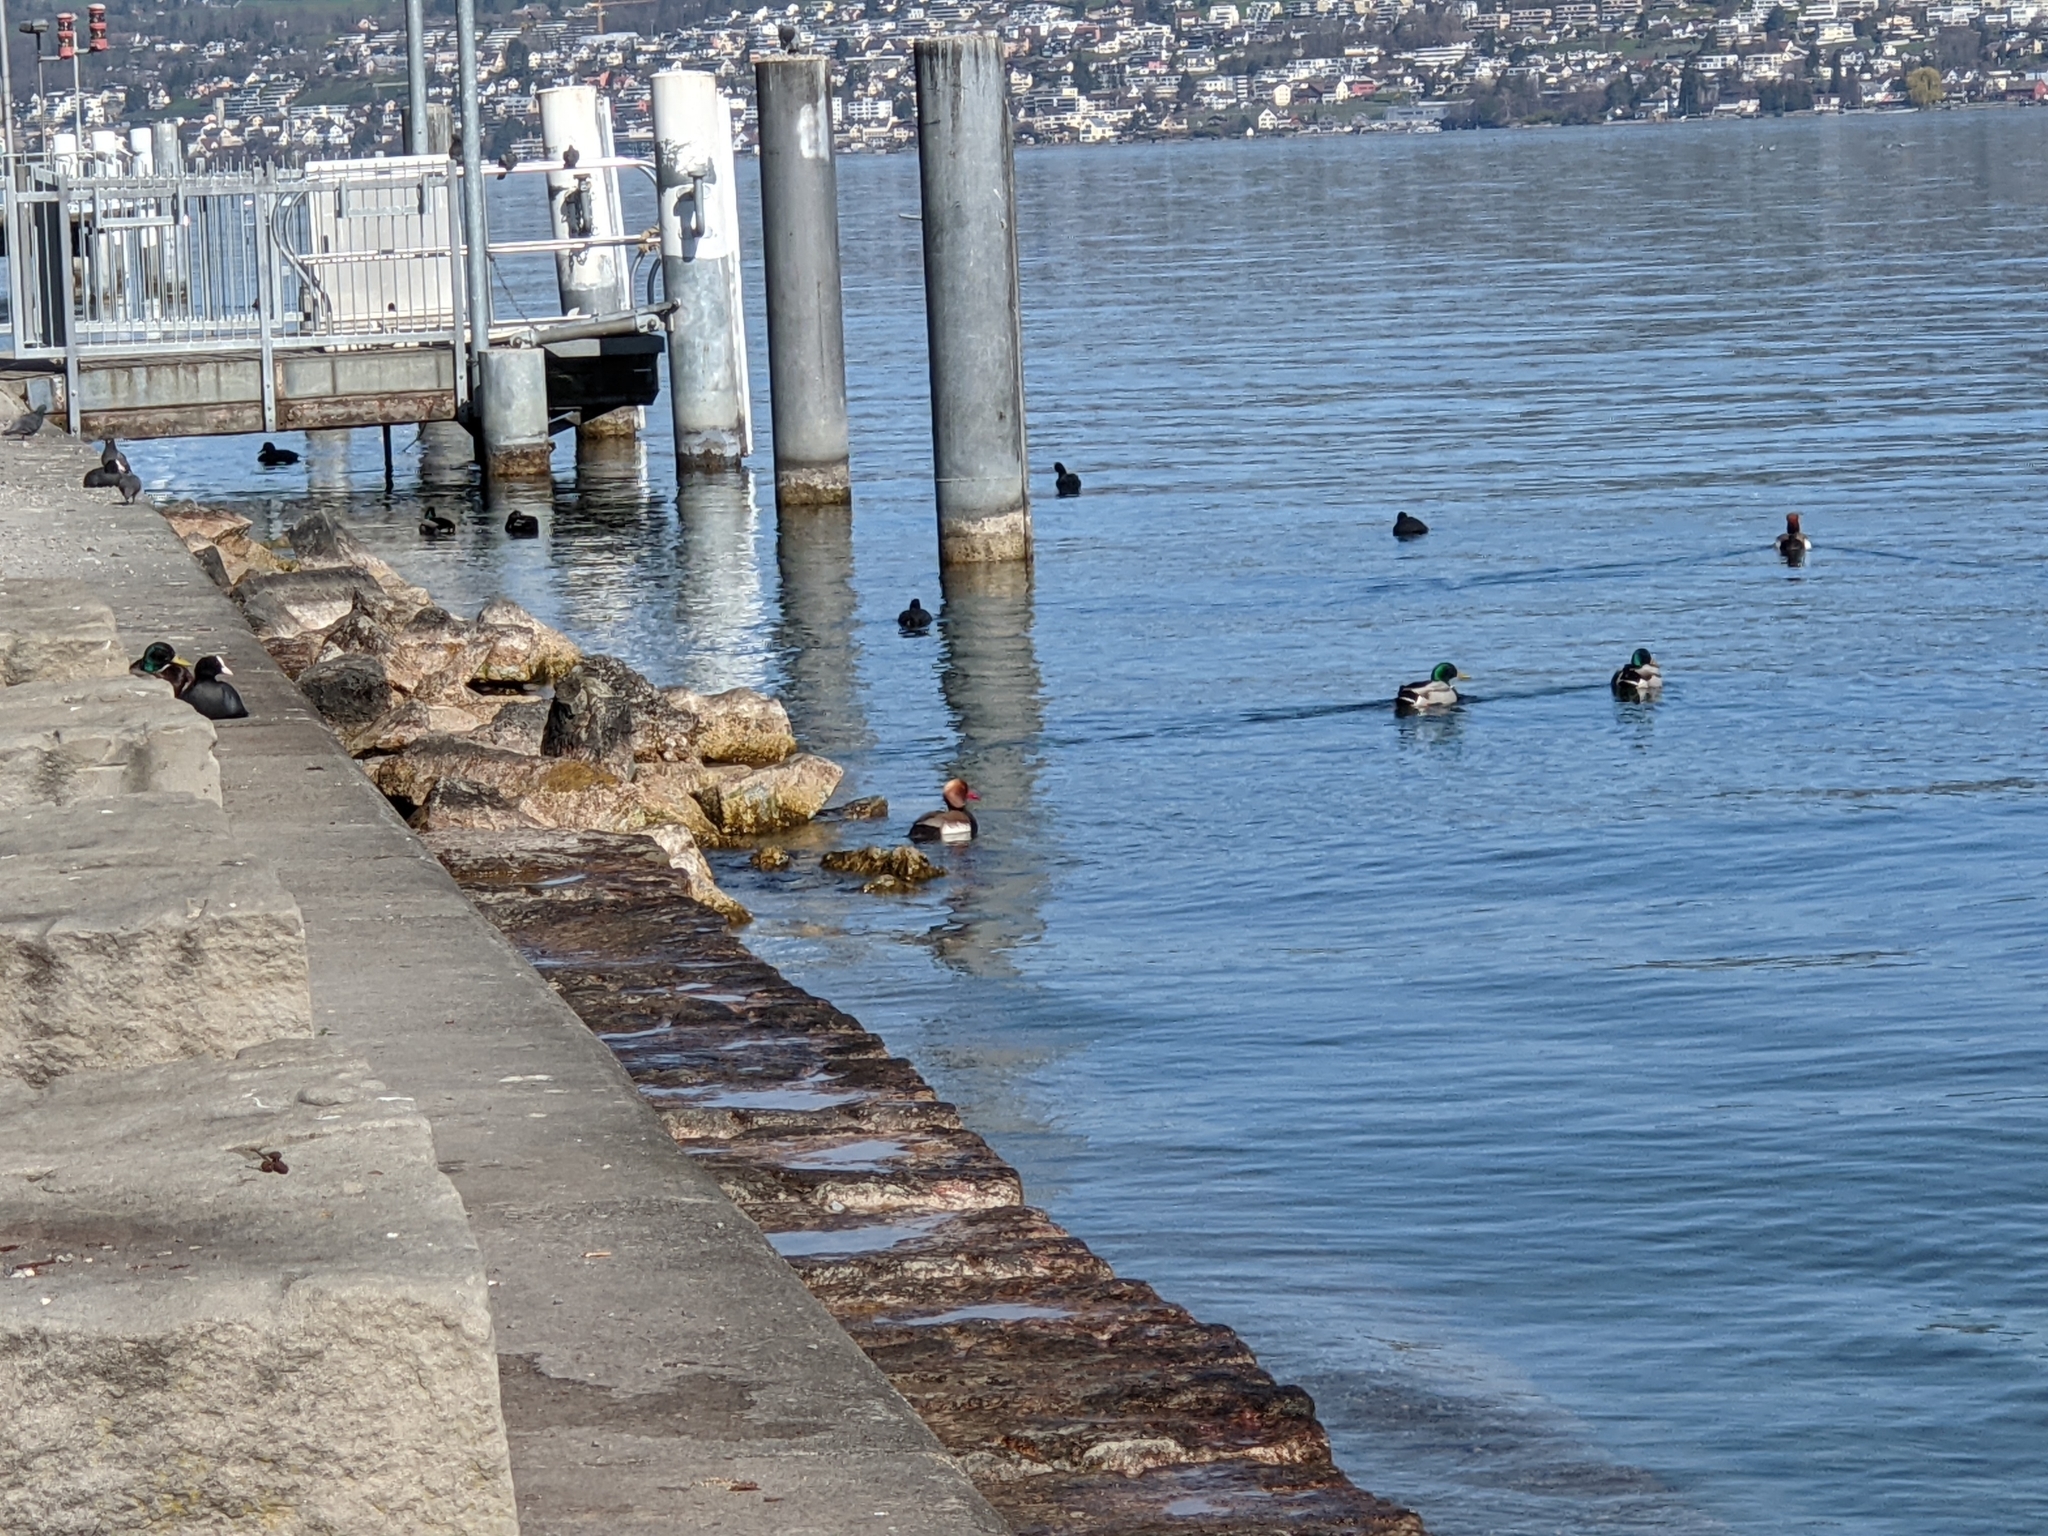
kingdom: Animalia
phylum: Chordata
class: Aves
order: Anseriformes
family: Anatidae
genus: Netta
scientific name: Netta rufina
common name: Red-crested pochard
